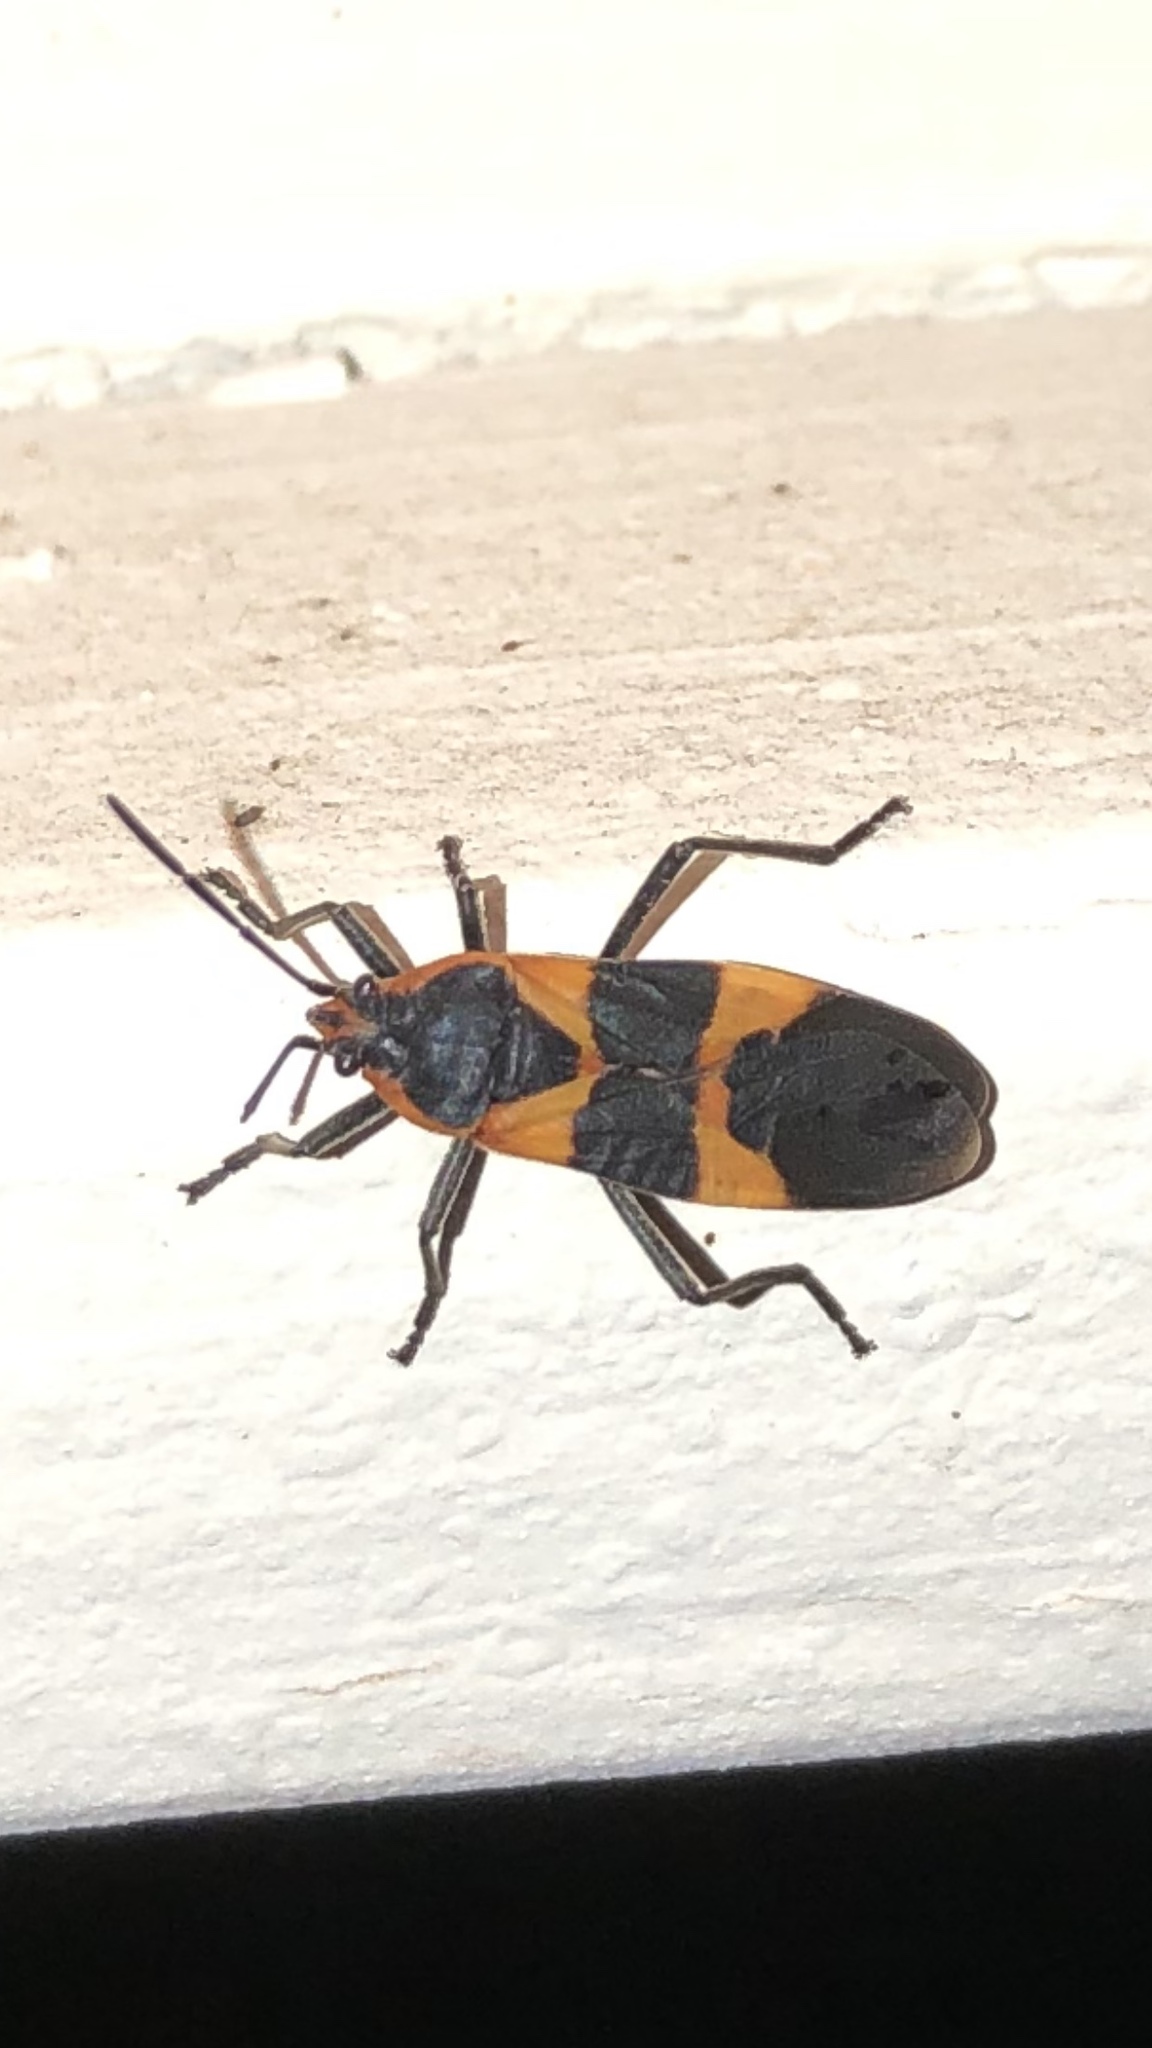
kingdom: Animalia
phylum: Arthropoda
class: Insecta
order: Hemiptera
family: Lygaeidae
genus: Oncopeltus
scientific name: Oncopeltus fasciatus
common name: Large milkweed bug
